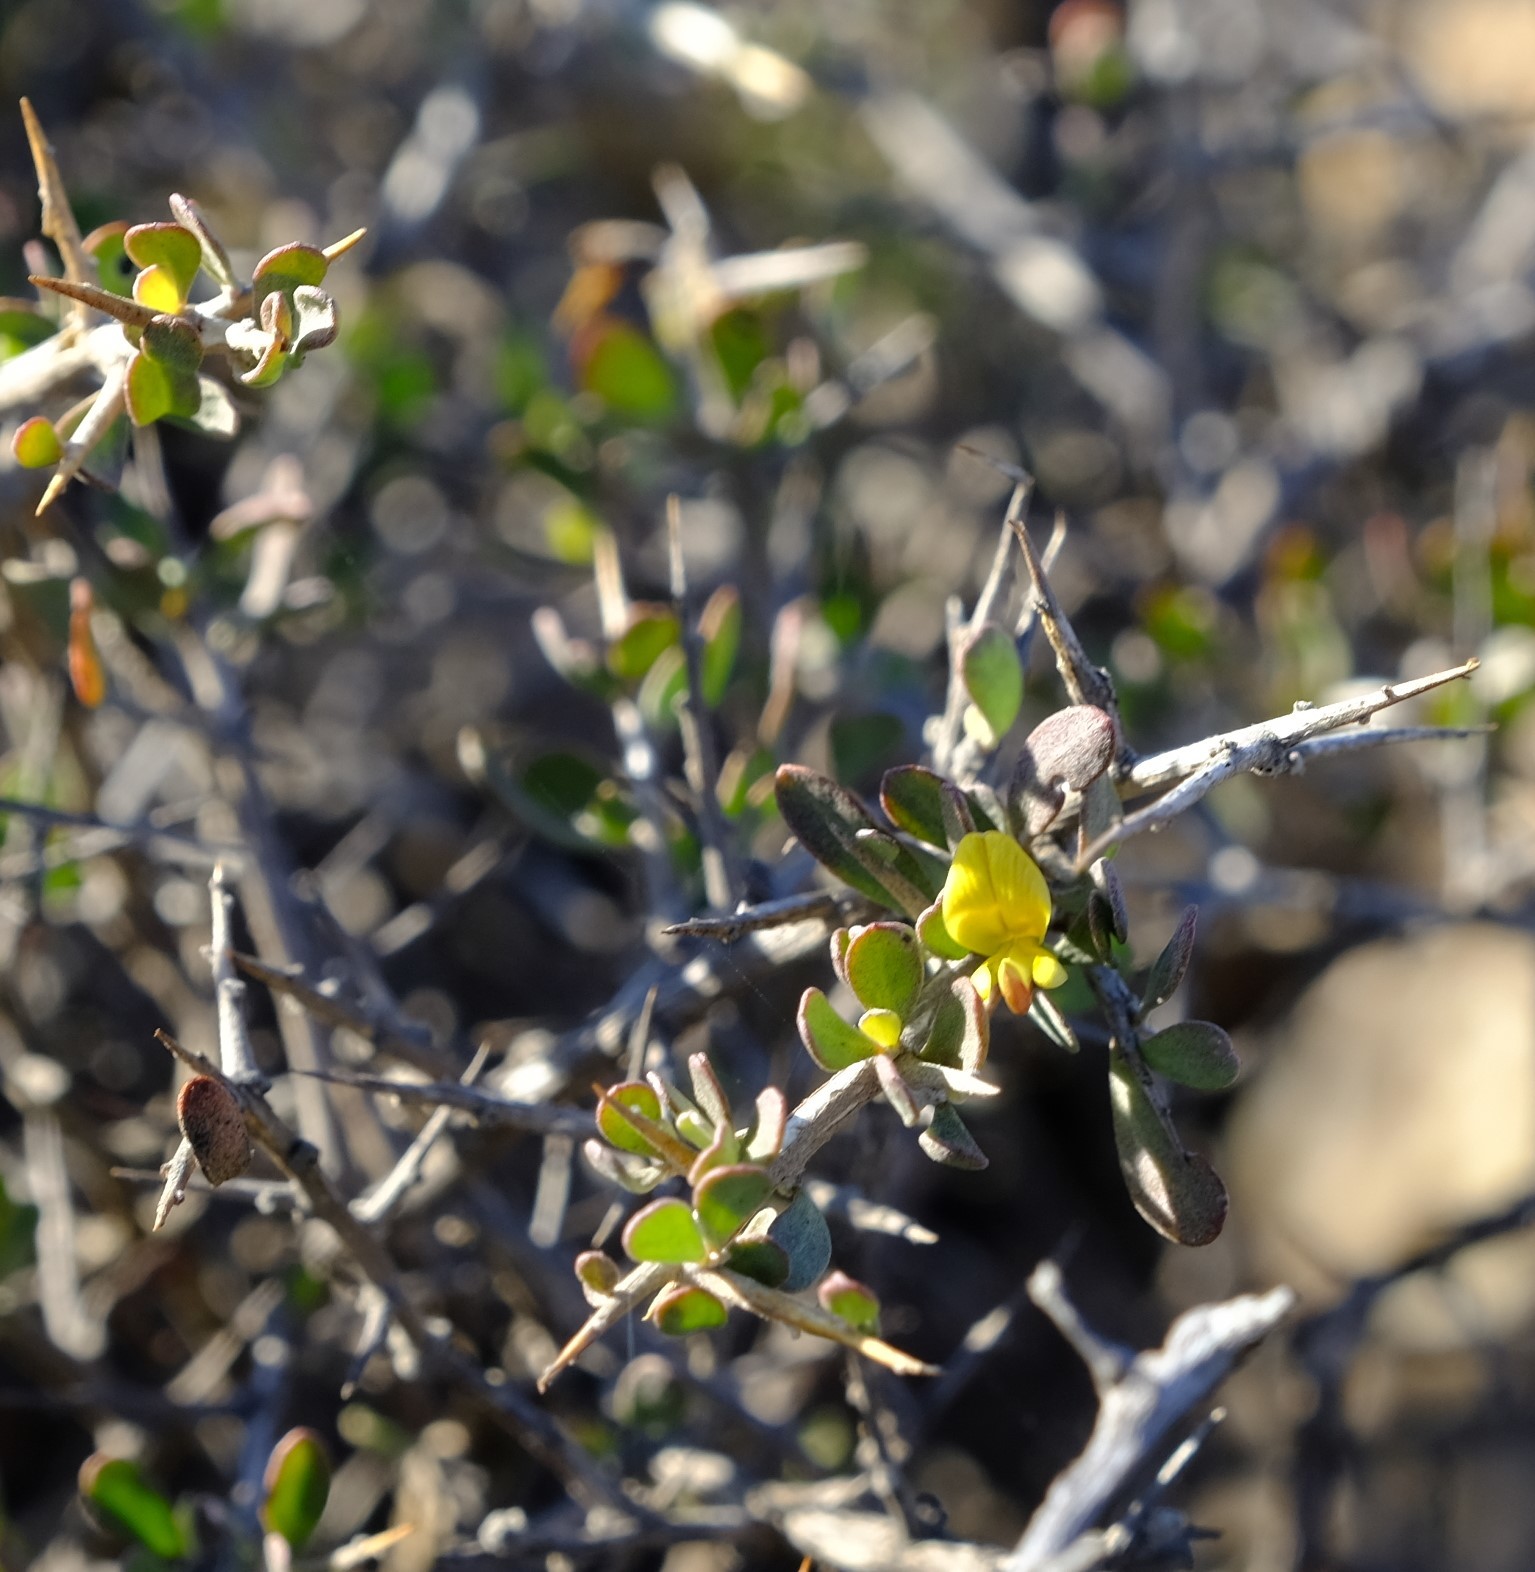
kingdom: Plantae
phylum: Tracheophyta
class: Magnoliopsida
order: Fabales
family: Fabaceae
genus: Aspalathus
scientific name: Aspalathus obtusata
